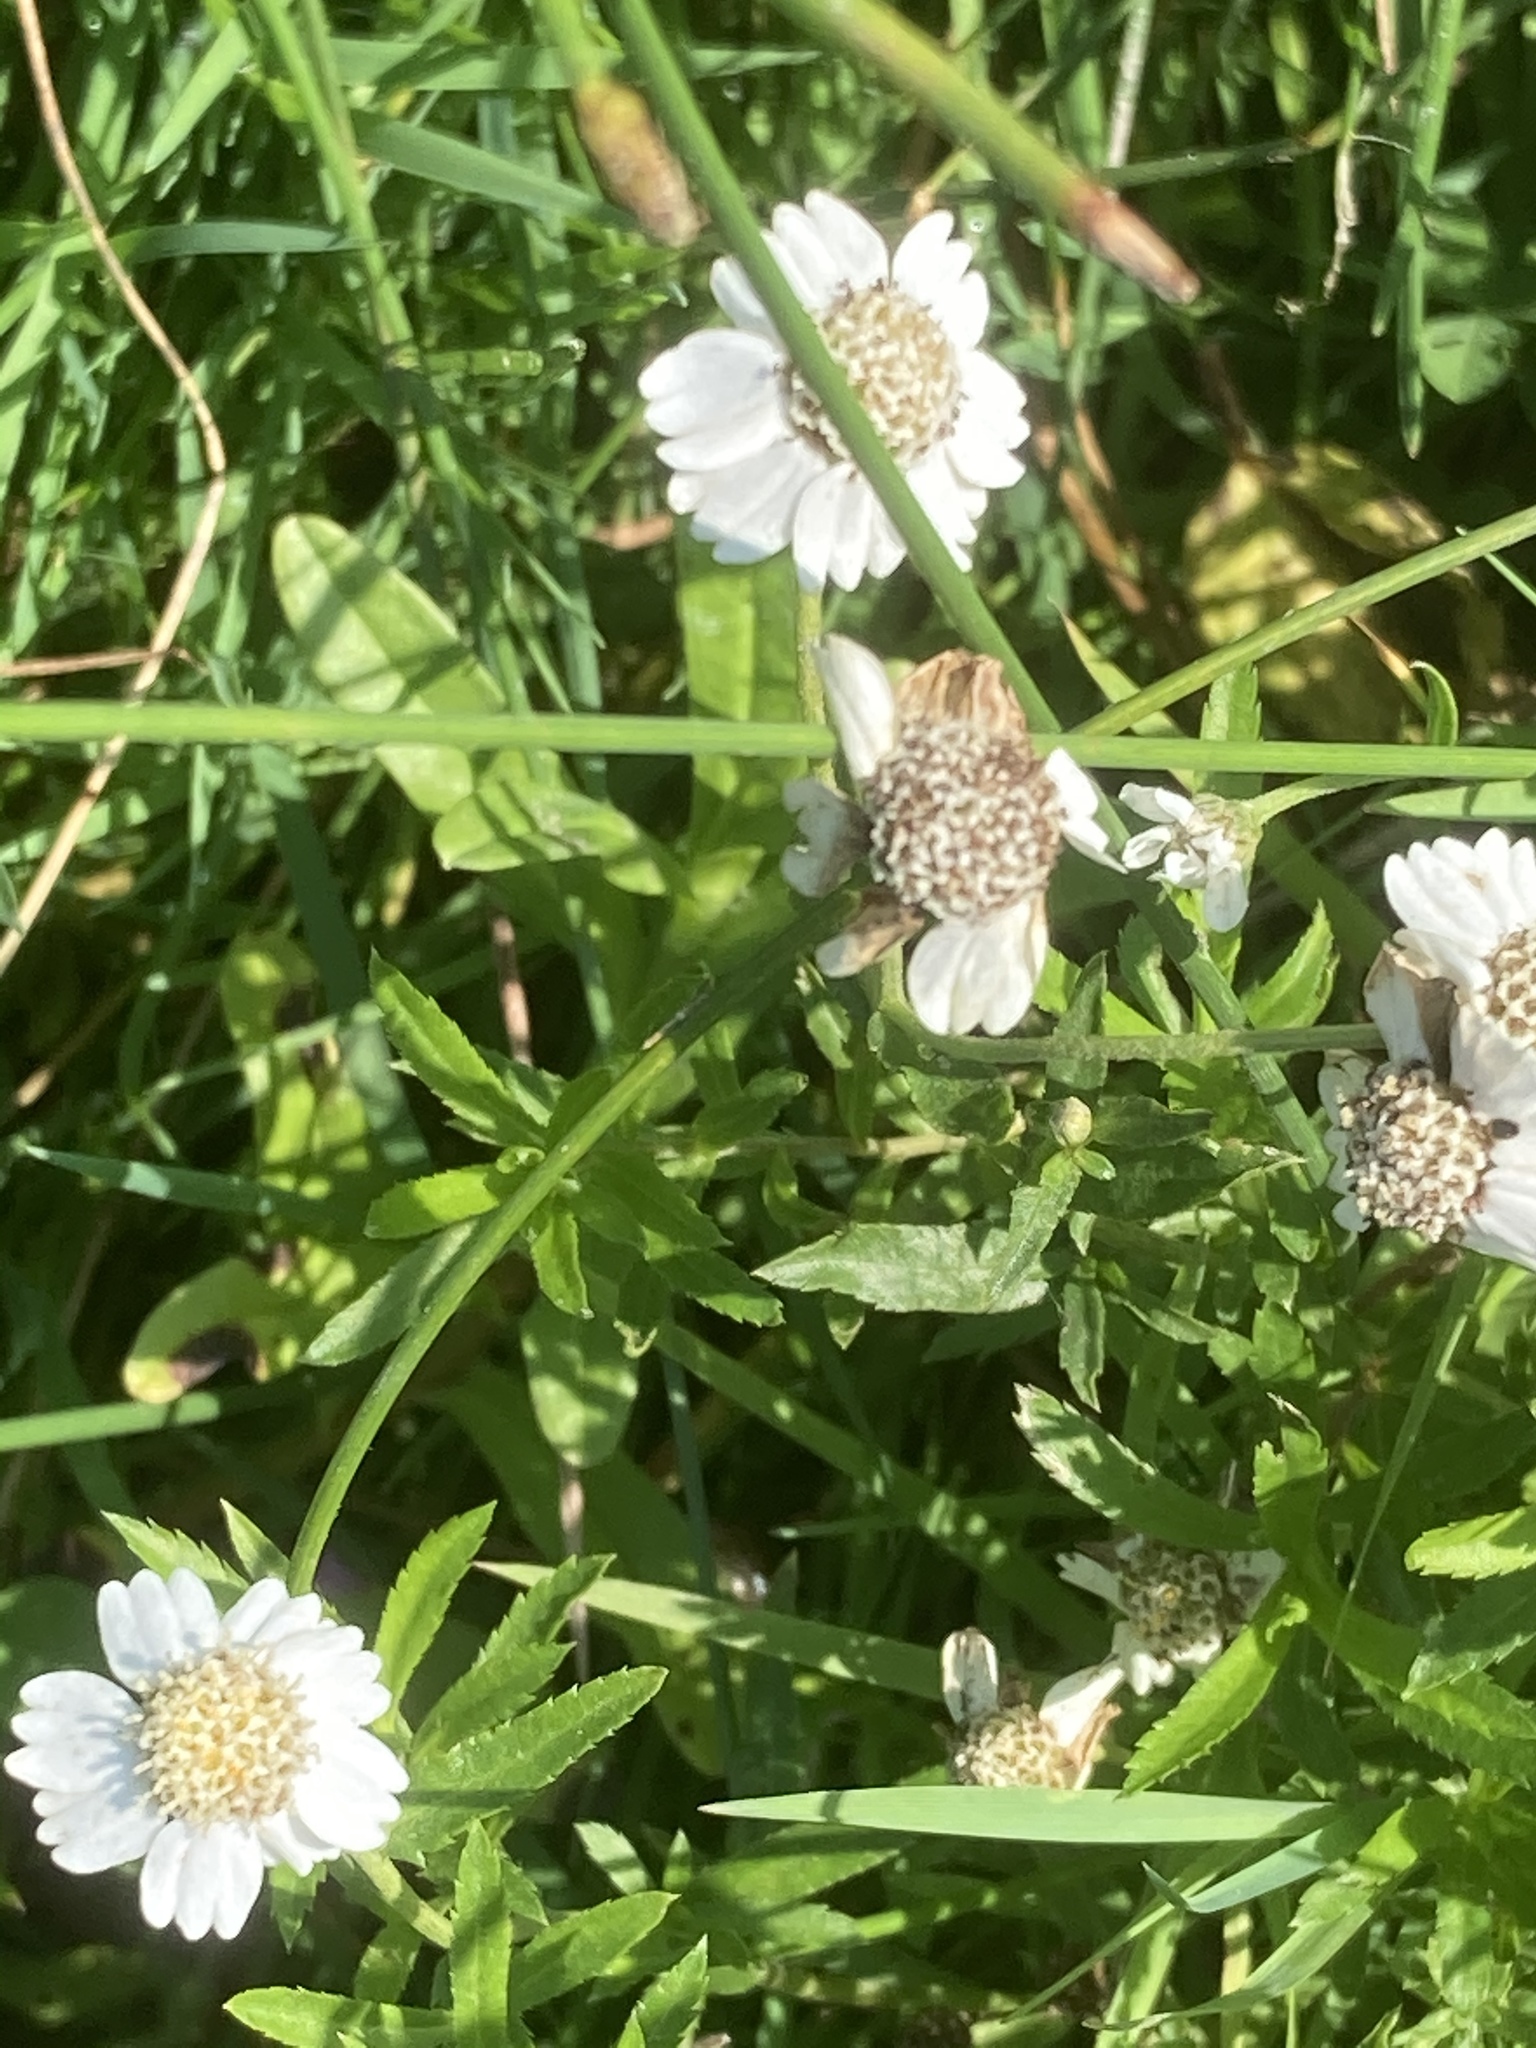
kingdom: Plantae
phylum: Tracheophyta
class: Magnoliopsida
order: Asterales
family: Asteraceae
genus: Achillea
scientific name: Achillea ptarmica
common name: Sneezeweed
